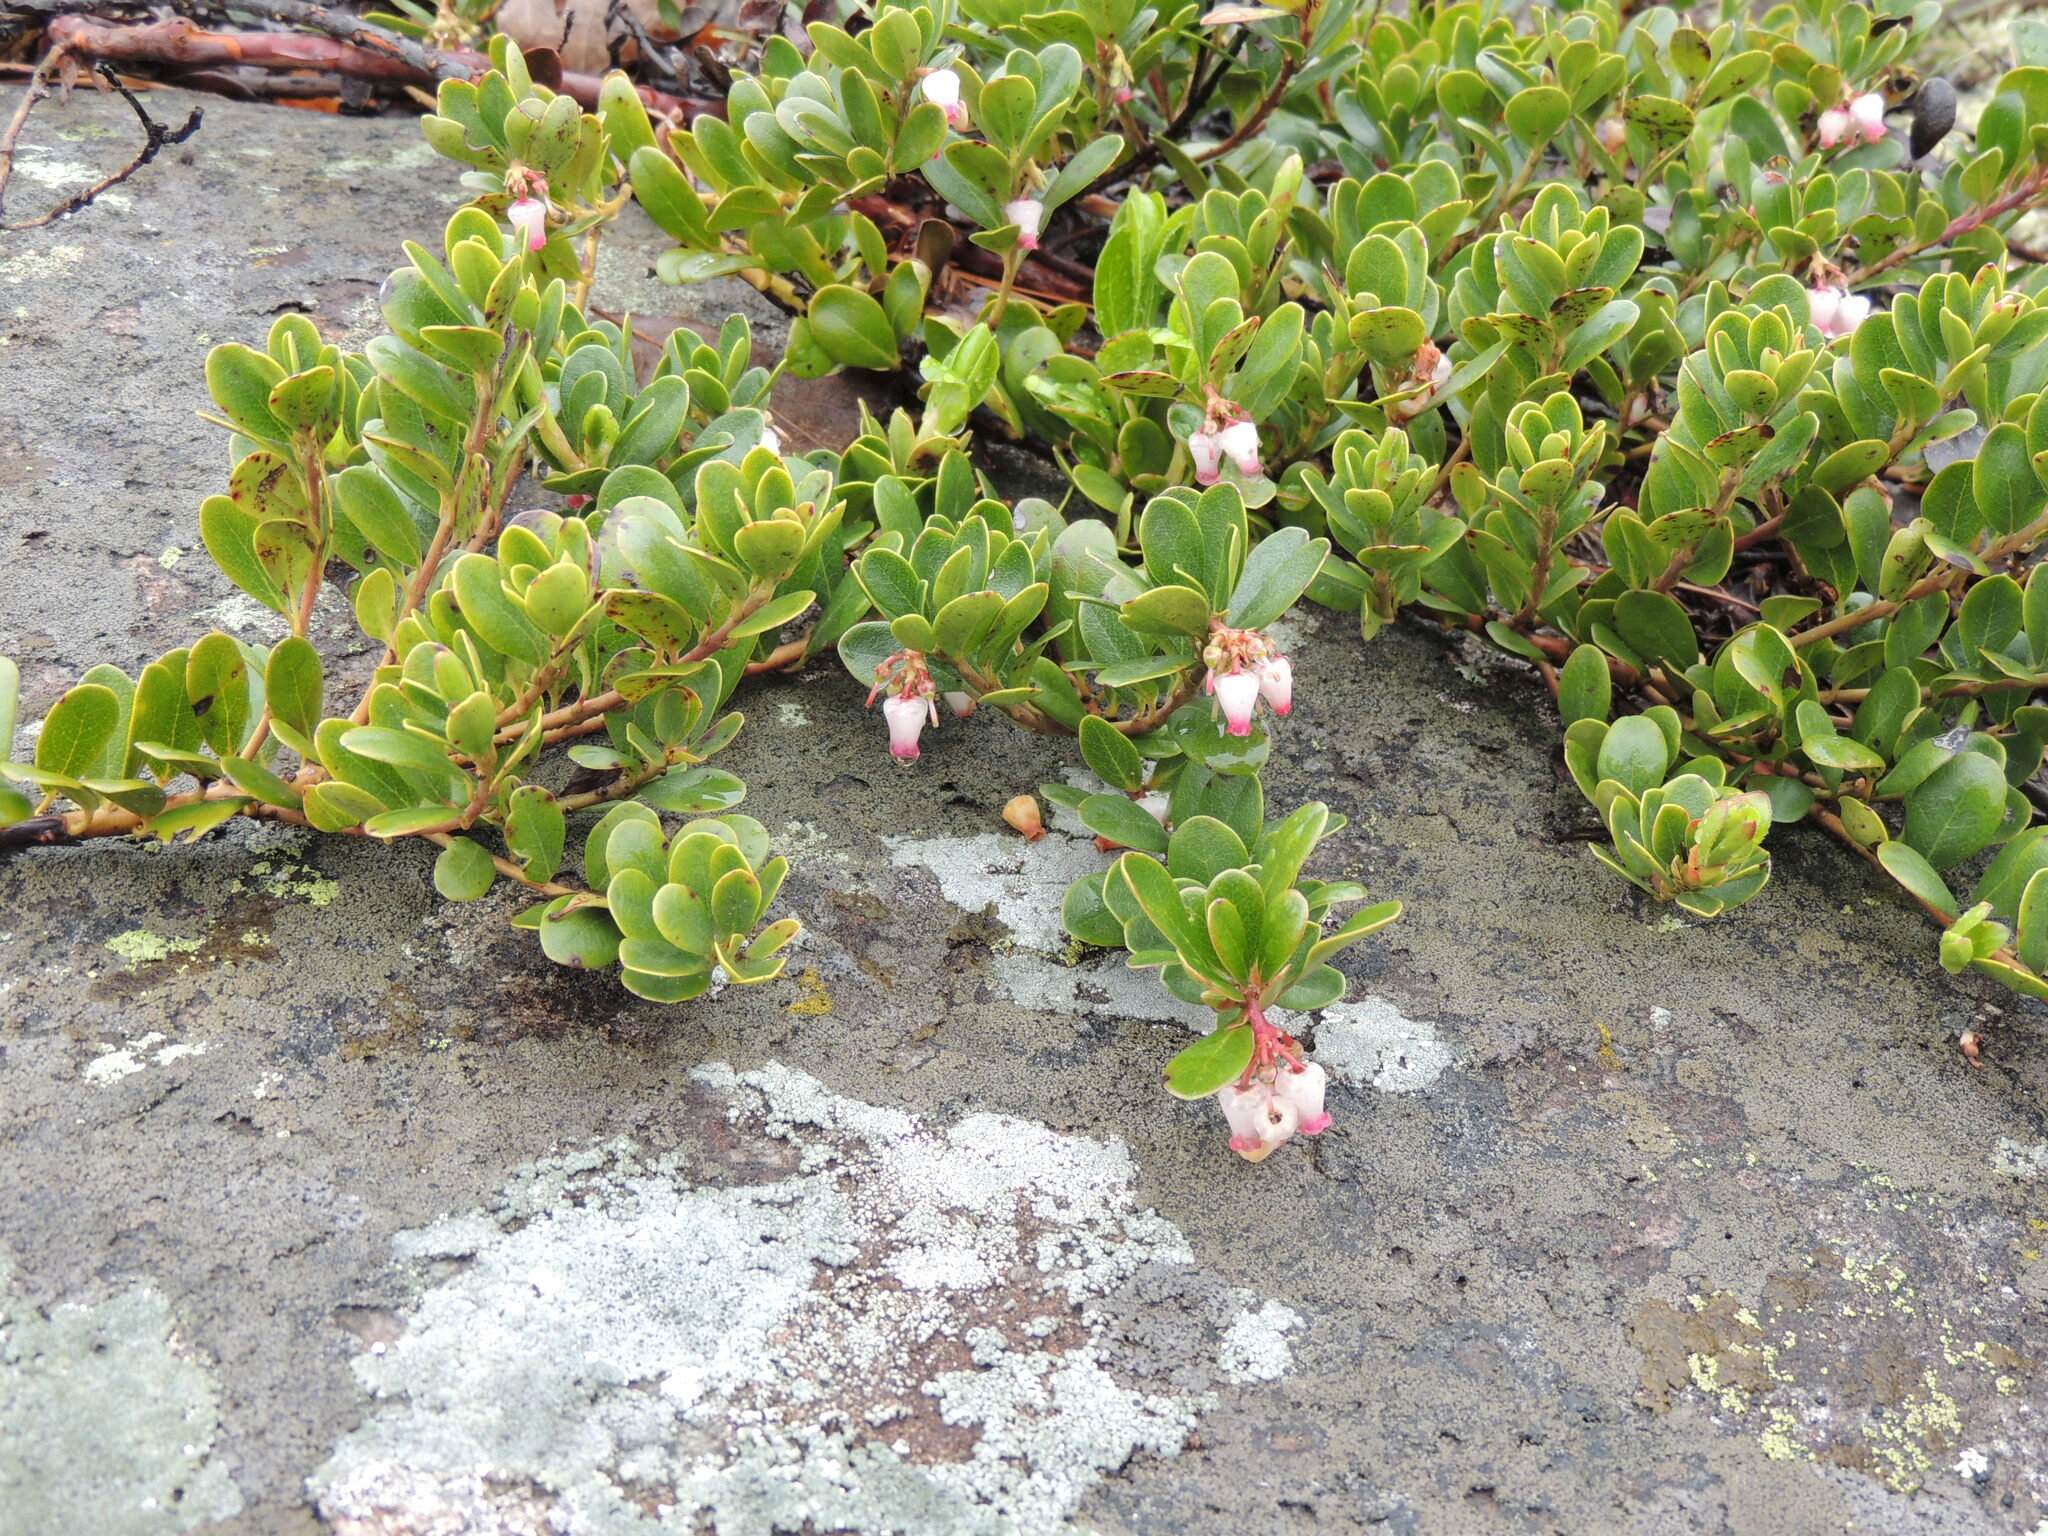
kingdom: Plantae
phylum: Tracheophyta
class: Magnoliopsida
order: Ericales
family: Ericaceae
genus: Arctostaphylos
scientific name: Arctostaphylos uva-ursi
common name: Bearberry
